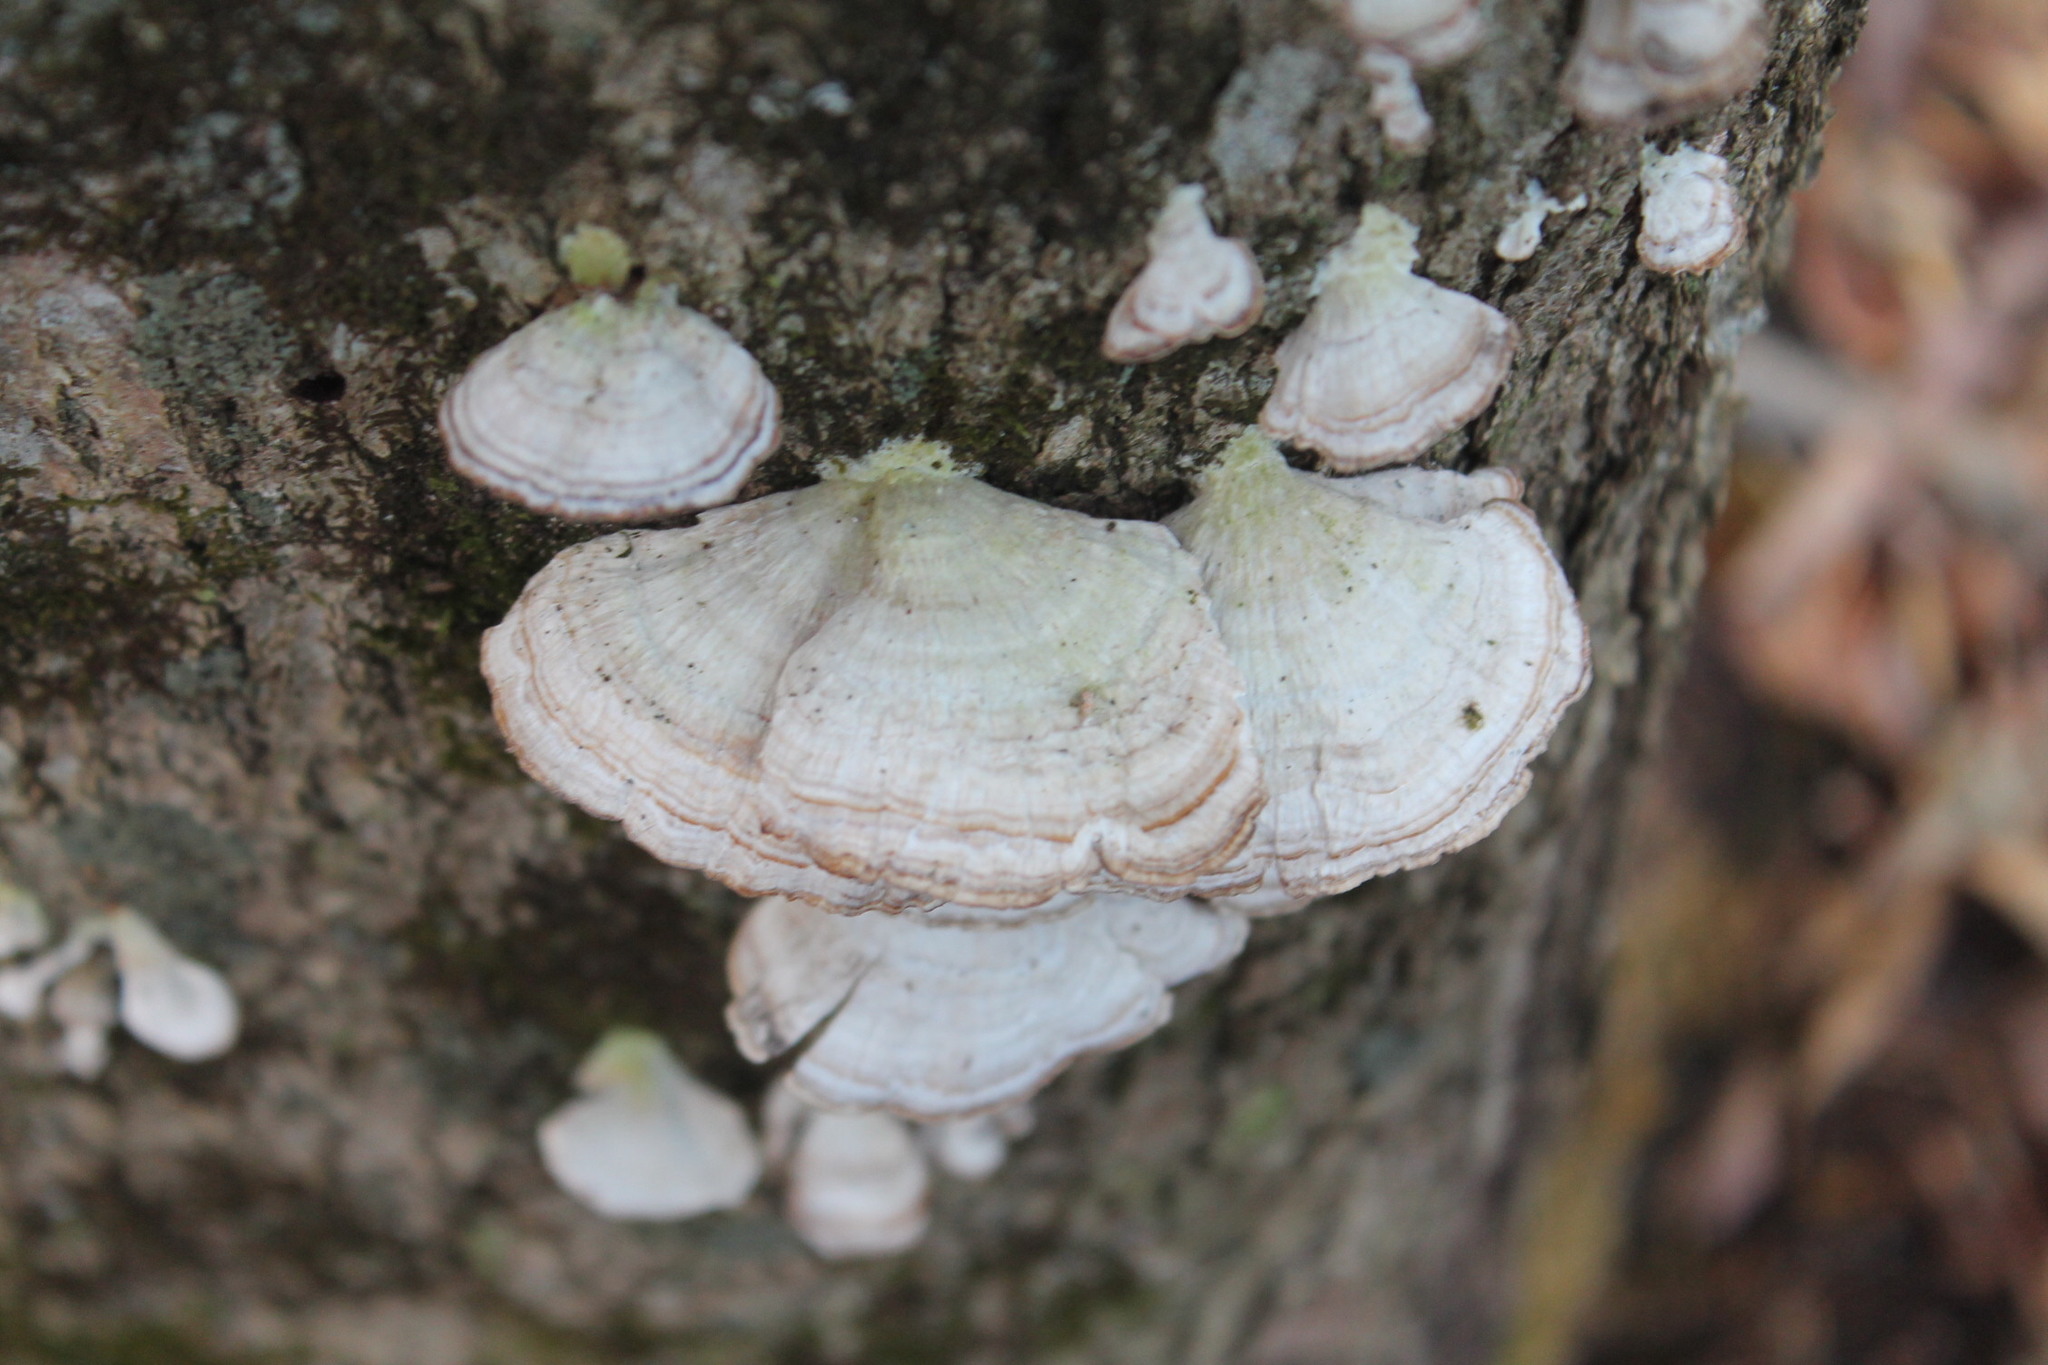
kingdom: Fungi
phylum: Basidiomycota
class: Agaricomycetes
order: Hymenochaetales
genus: Trichaptum
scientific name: Trichaptum biforme
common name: Violet-toothed polypore
